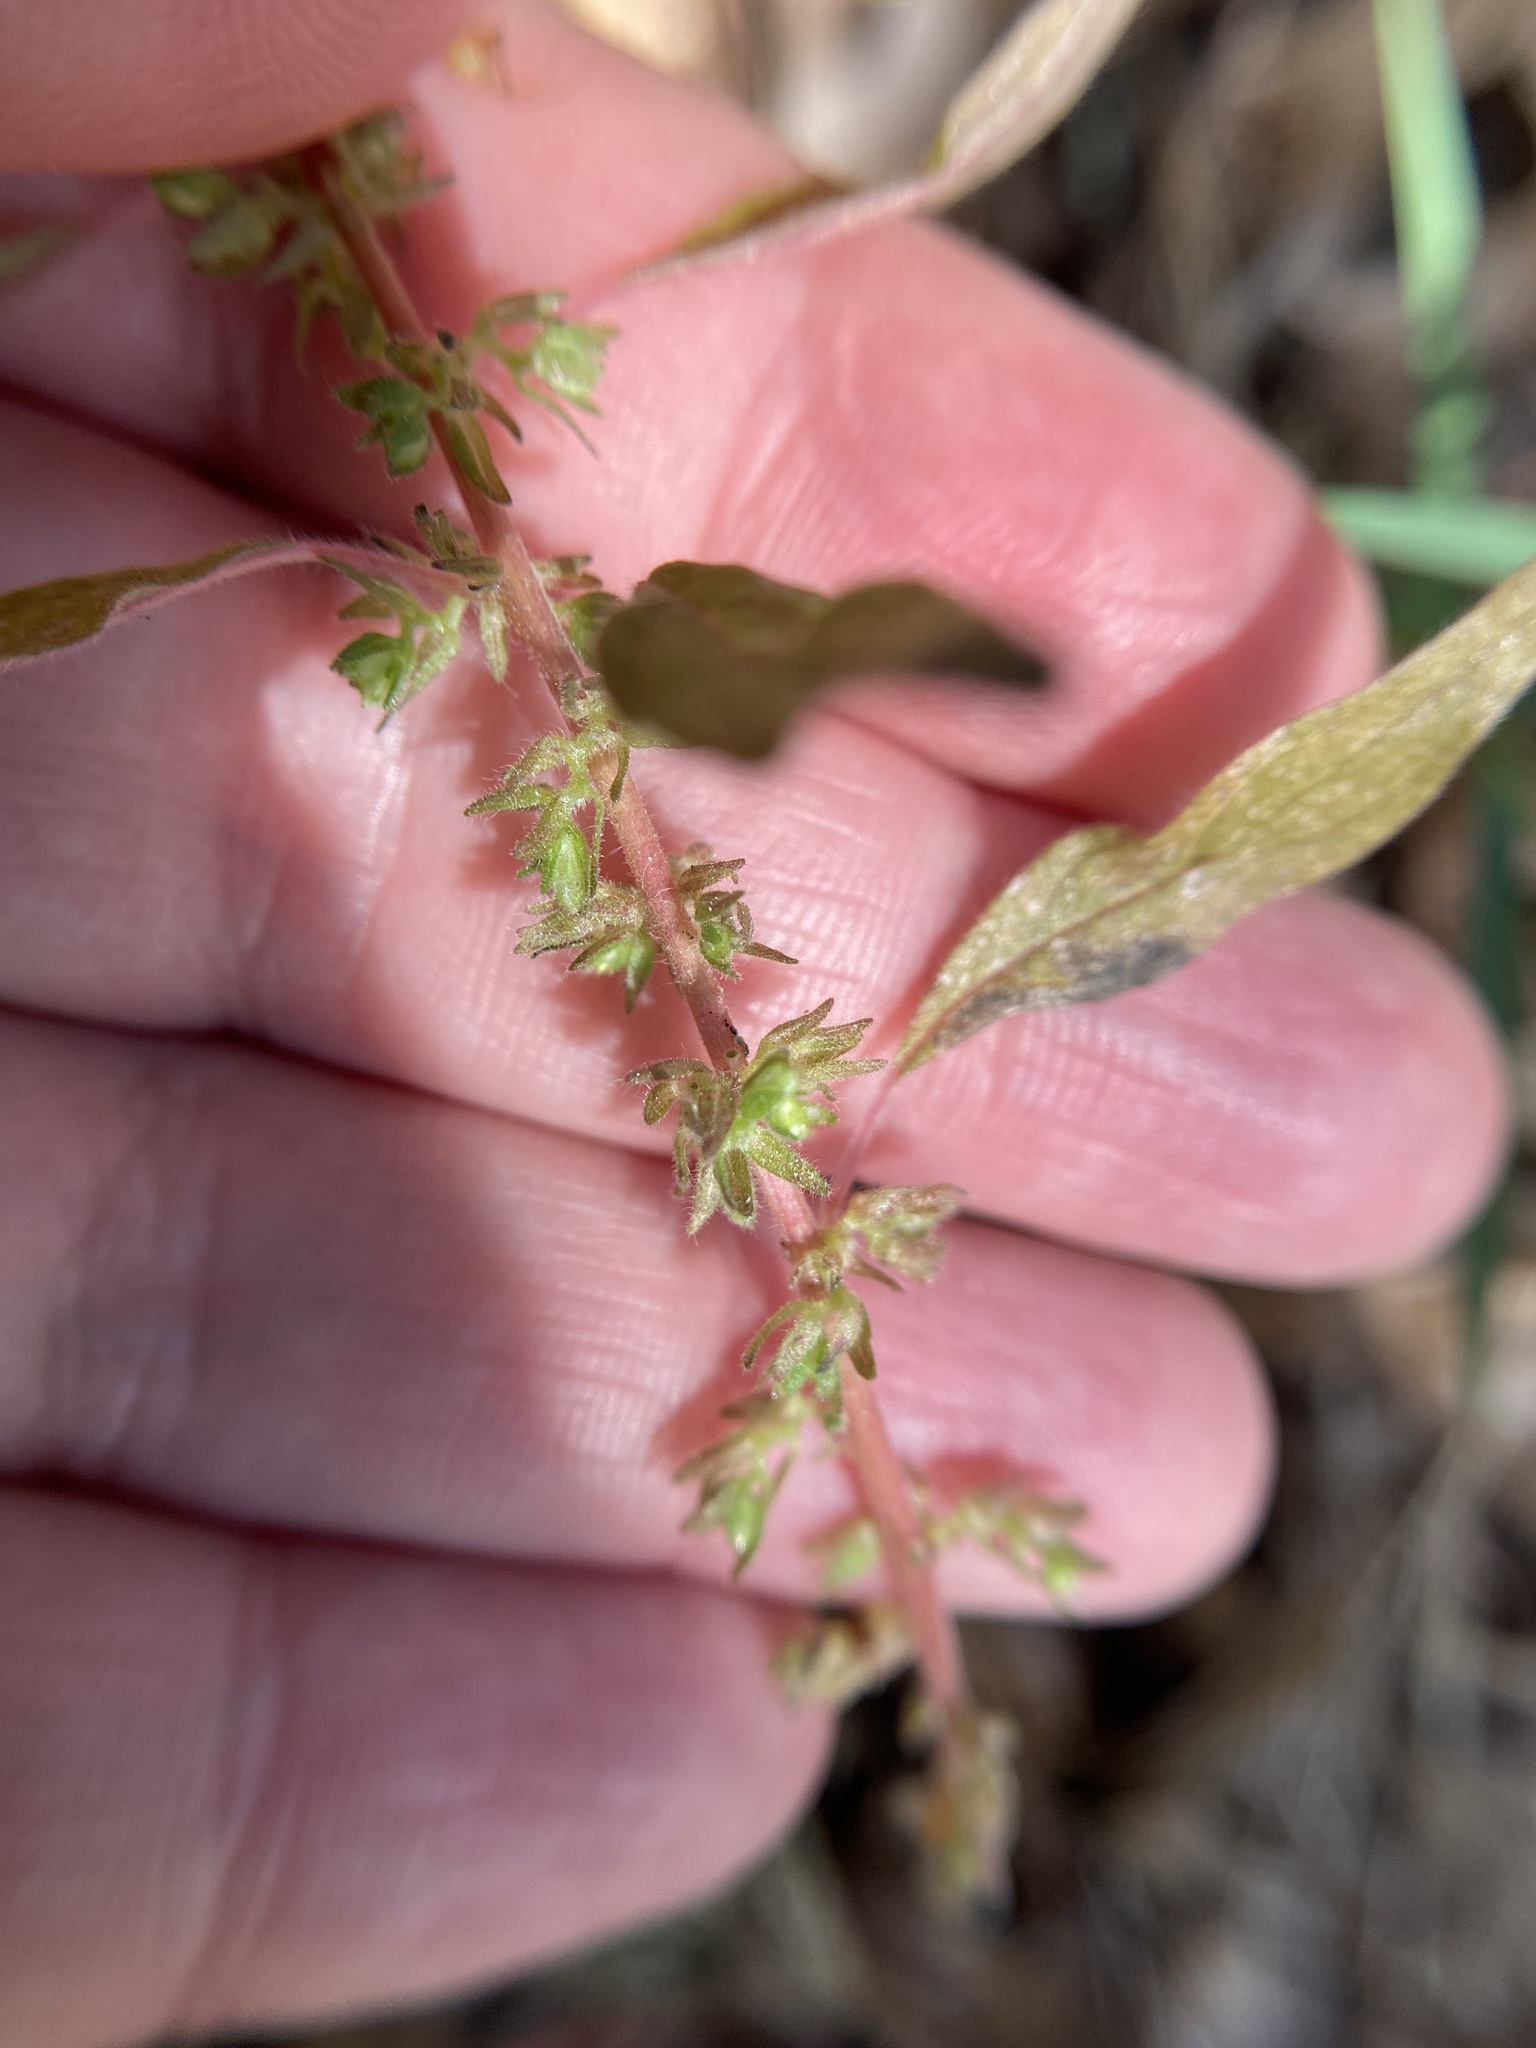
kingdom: Plantae
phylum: Tracheophyta
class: Magnoliopsida
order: Rosales
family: Urticaceae
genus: Parietaria
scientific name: Parietaria pensylvanica
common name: Pennsylvania pellitory
